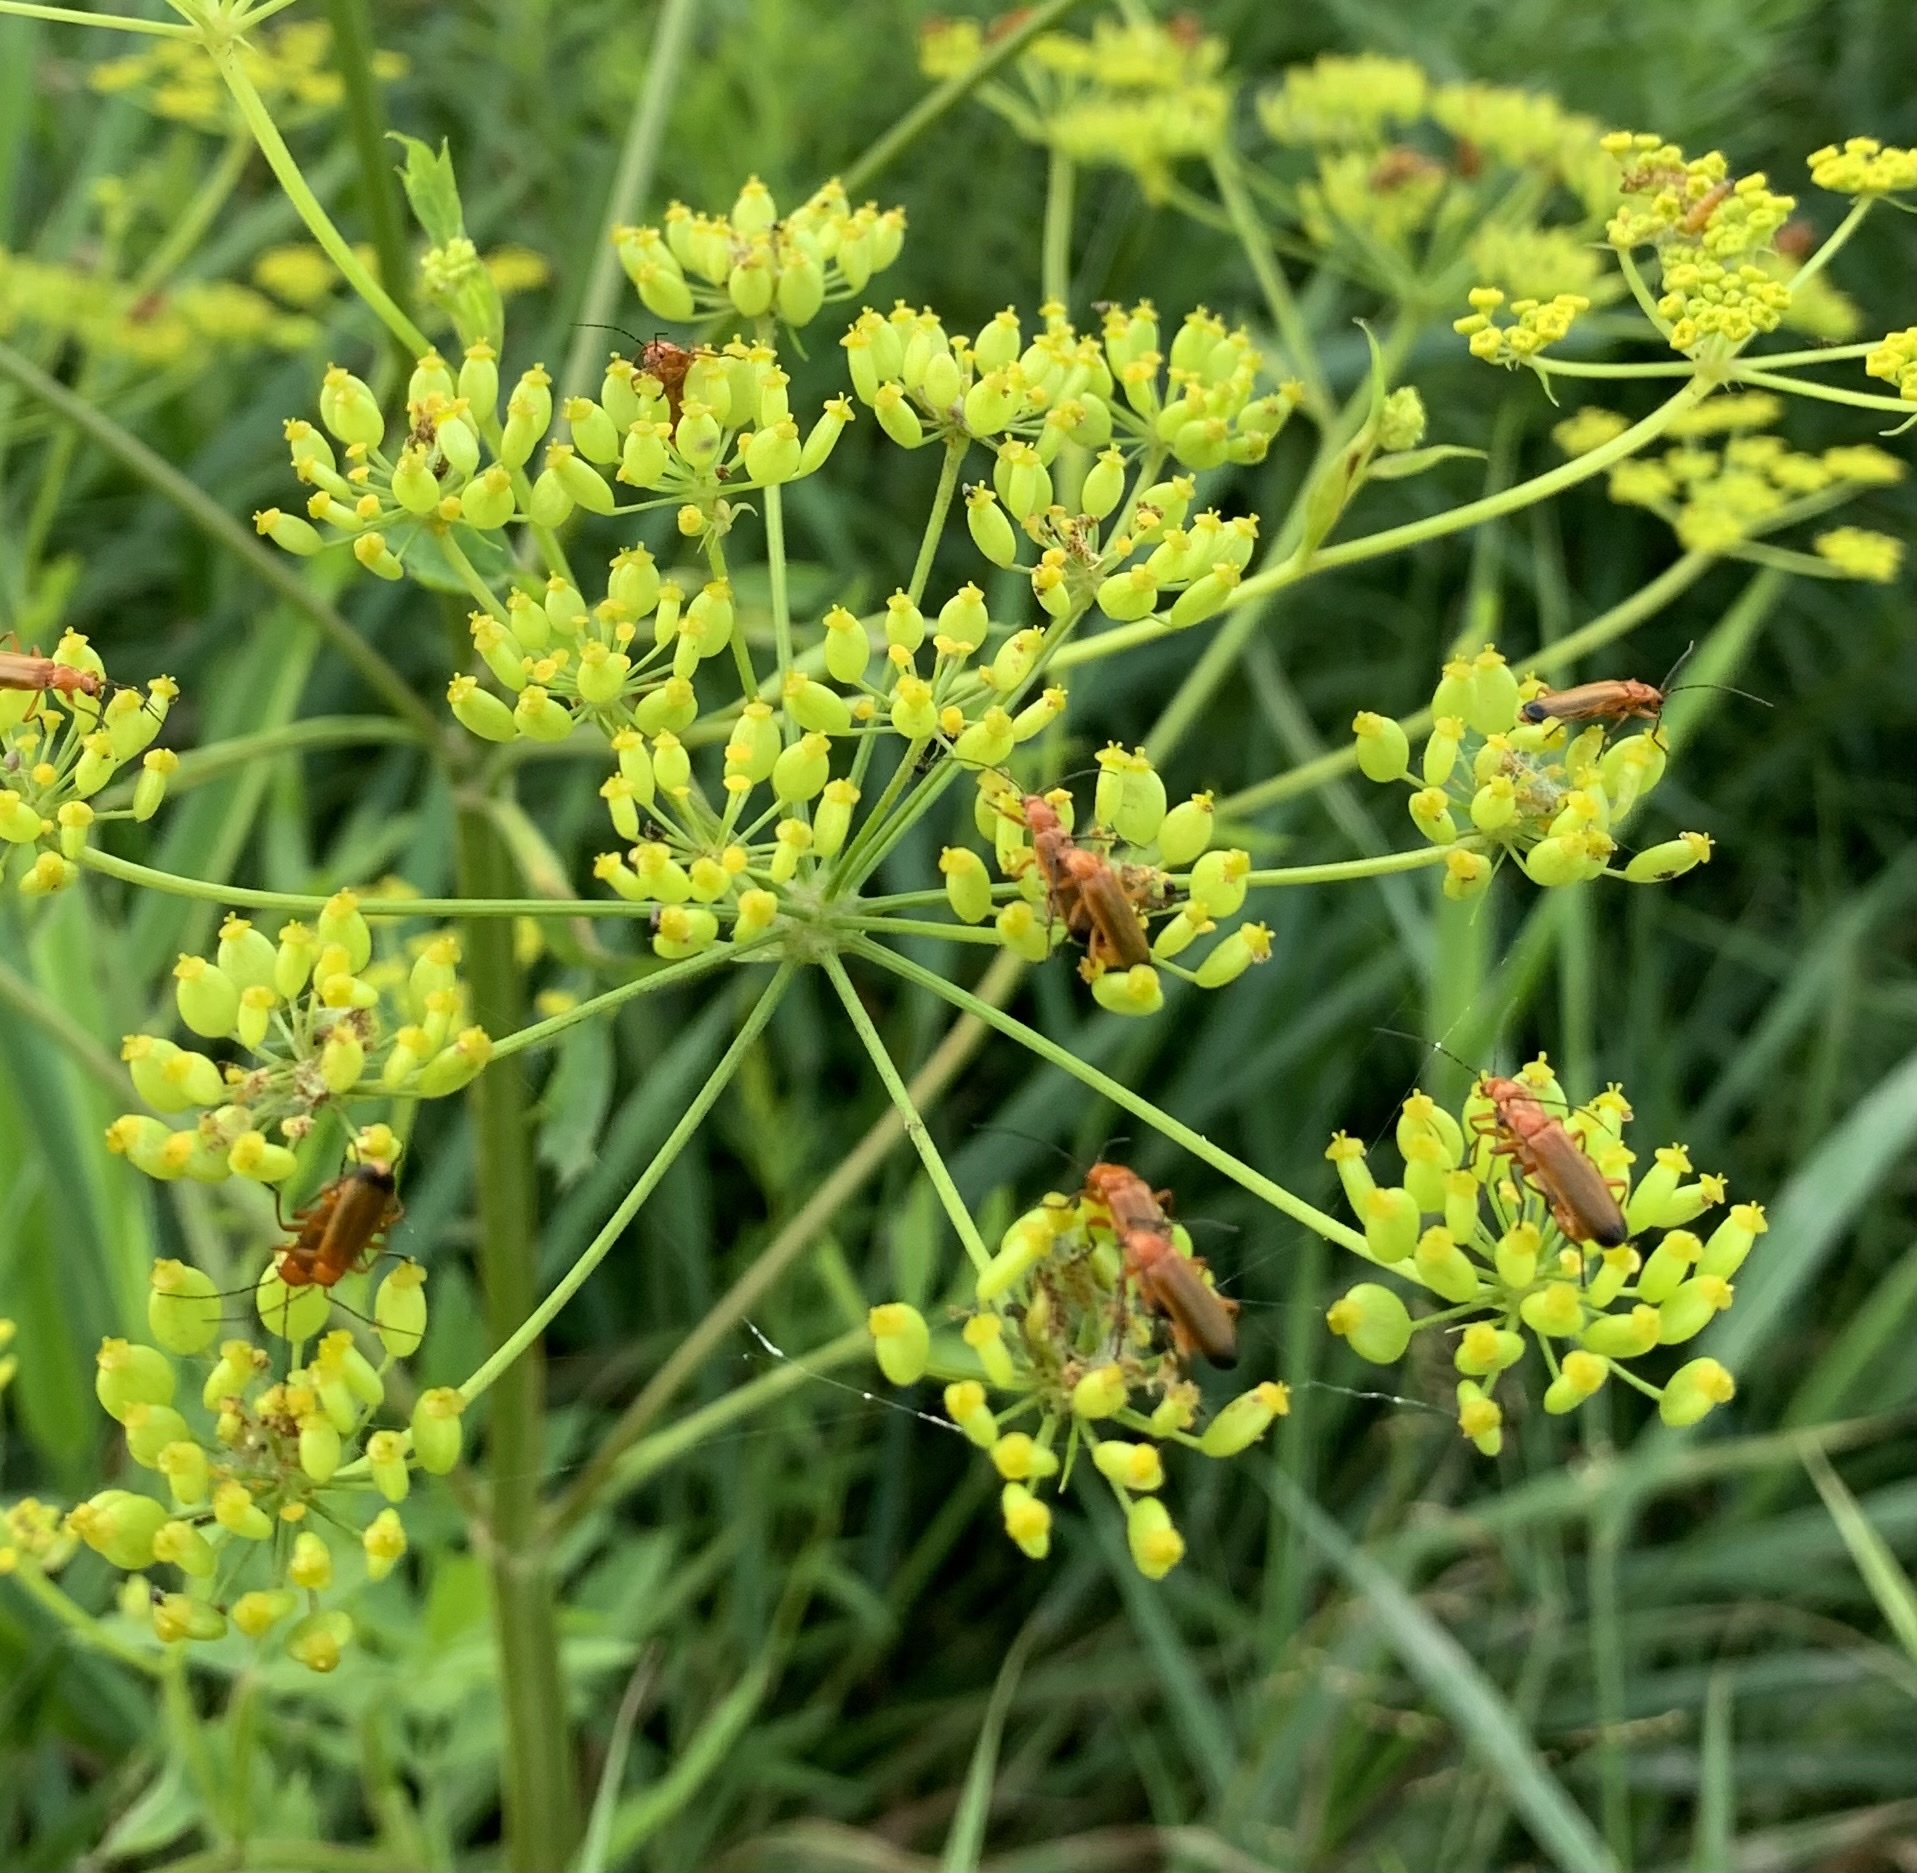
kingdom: Animalia
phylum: Arthropoda
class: Insecta
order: Coleoptera
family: Cantharidae
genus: Rhagonycha
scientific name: Rhagonycha fulva
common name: Common red soldier beetle
